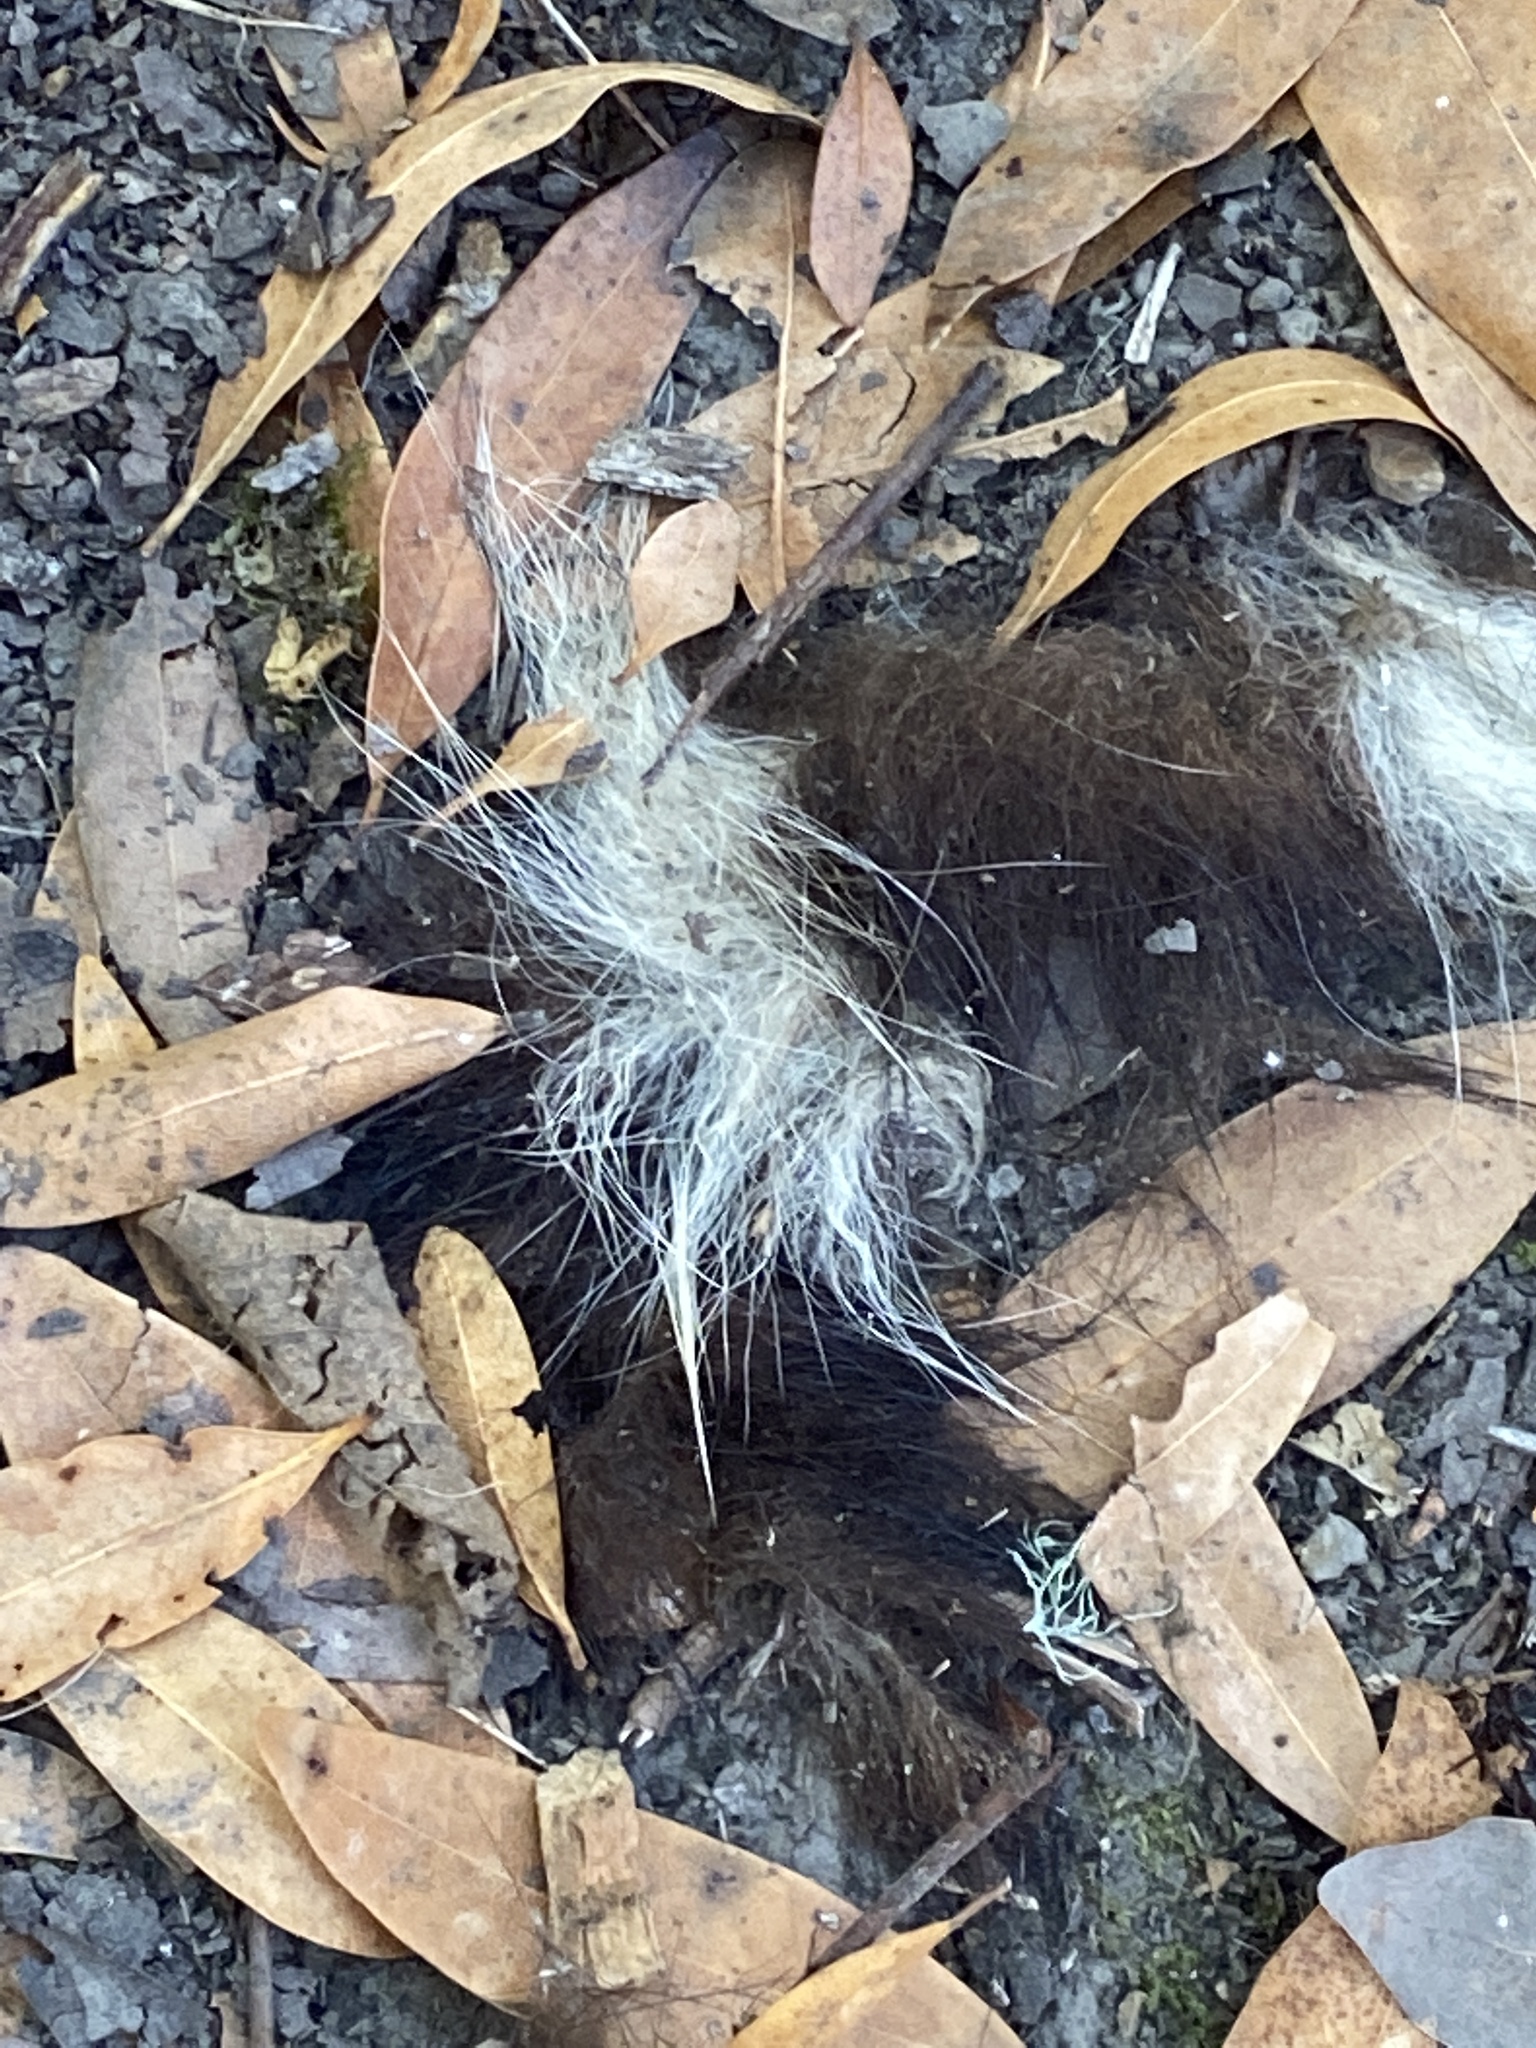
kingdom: Animalia
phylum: Chordata
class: Mammalia
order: Carnivora
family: Mephitidae
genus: Mephitis
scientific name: Mephitis mephitis
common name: Striped skunk
